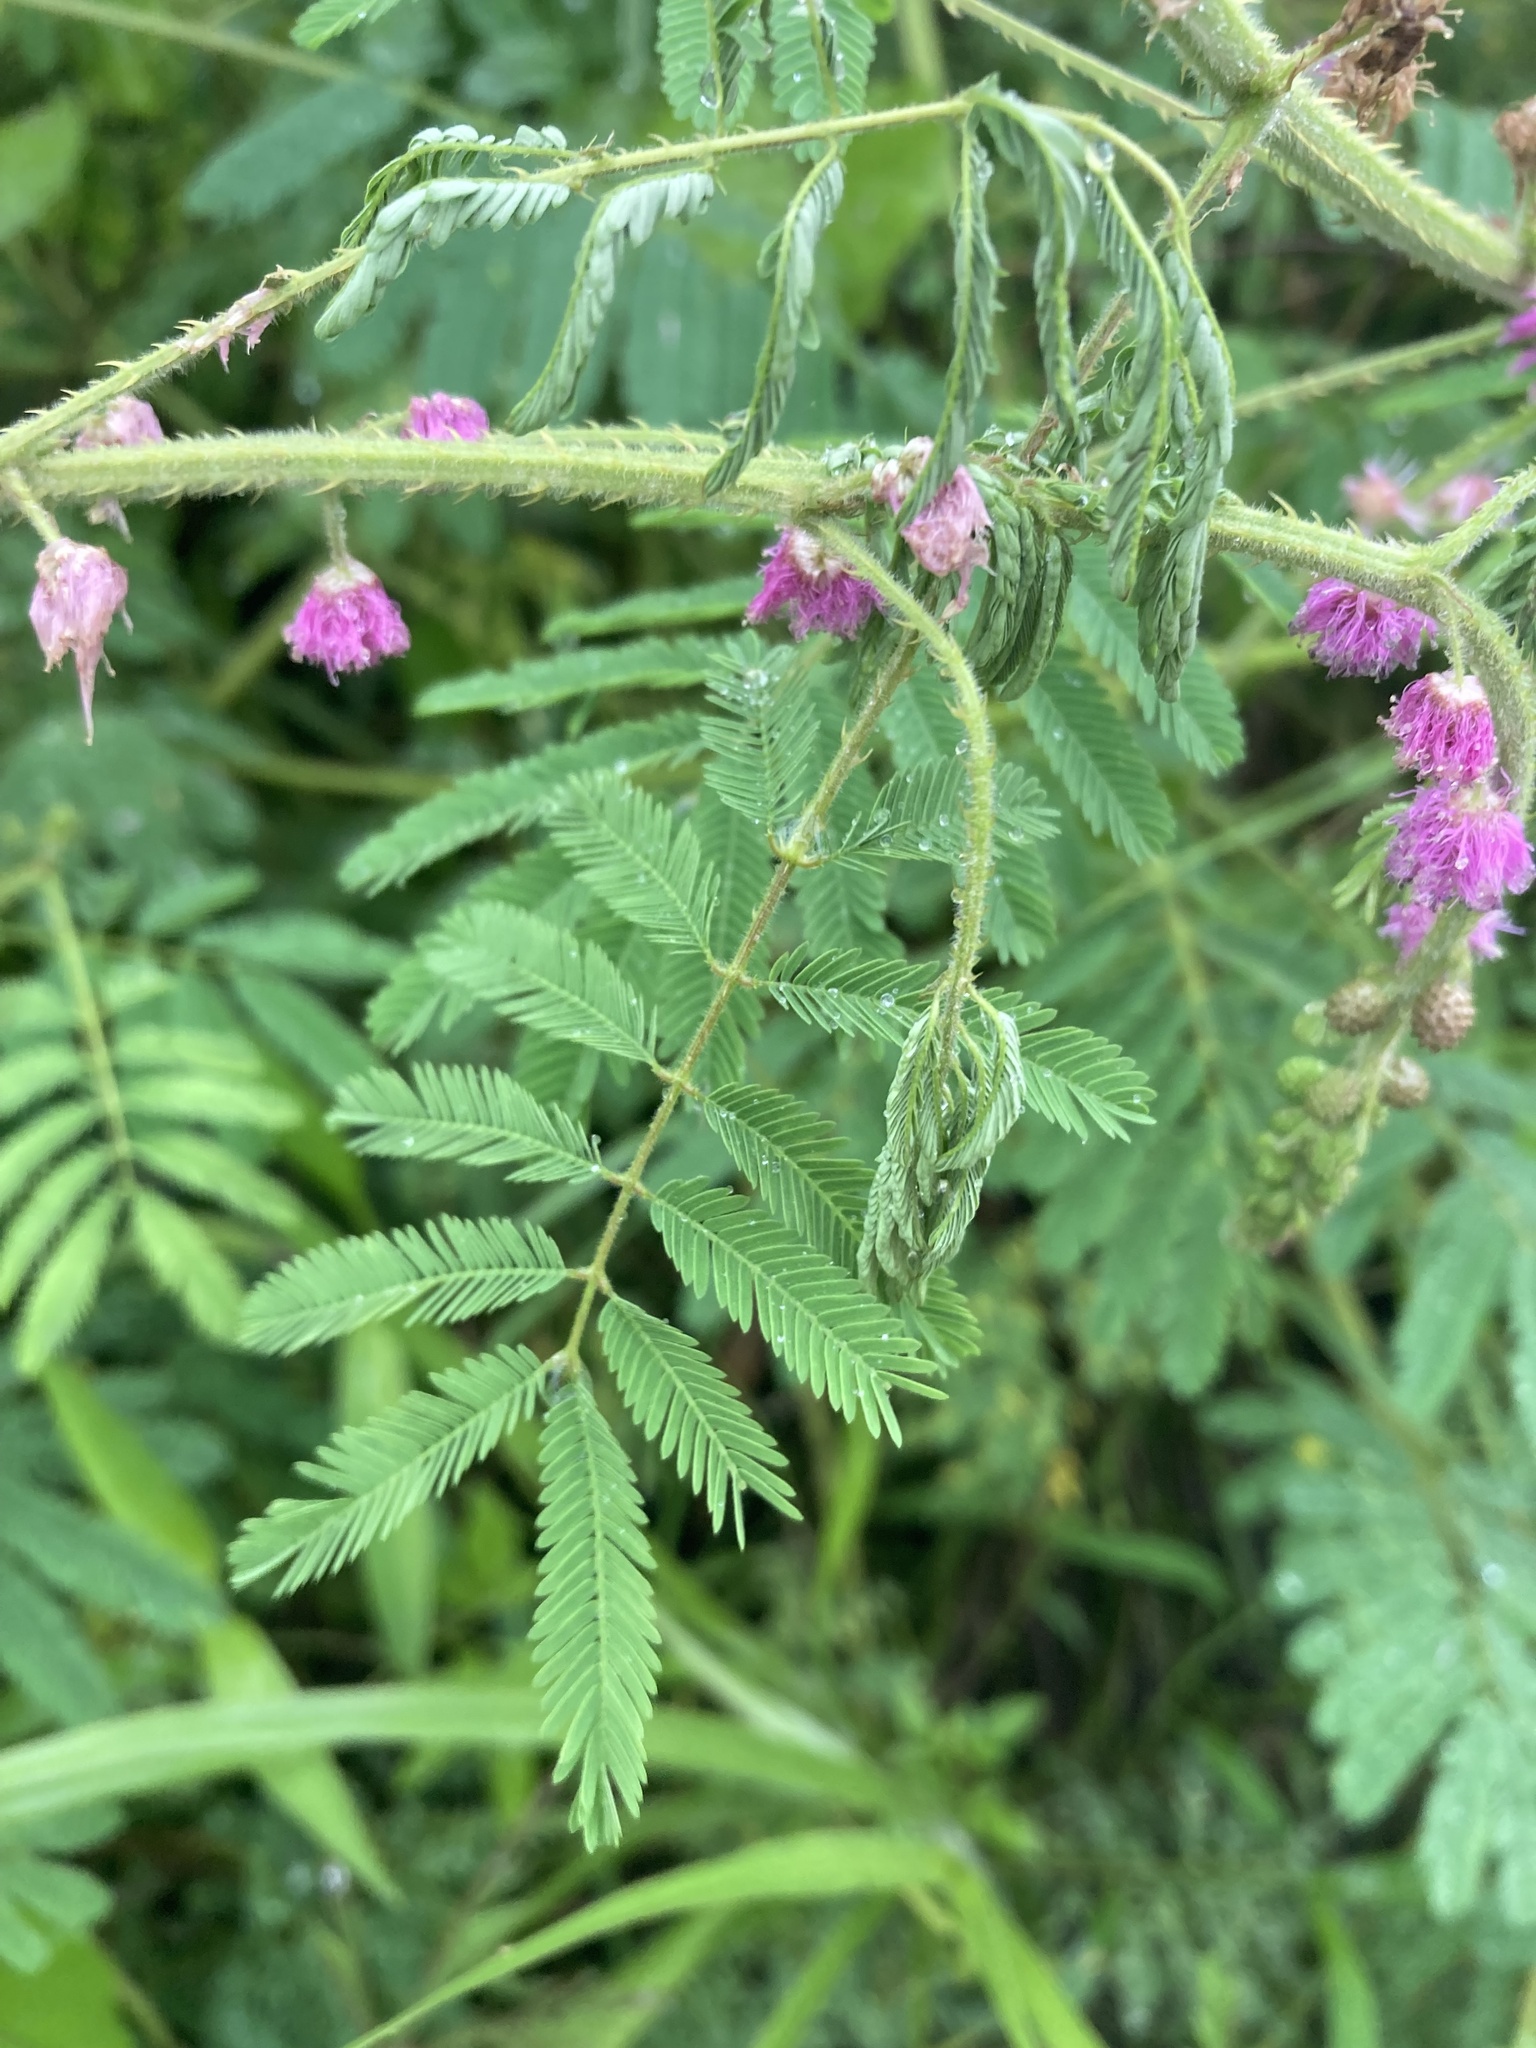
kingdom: Plantae
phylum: Tracheophyta
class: Magnoliopsida
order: Fabales
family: Fabaceae
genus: Mimosa
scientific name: Mimosa diplotricha
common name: Giant sensitive-plant
